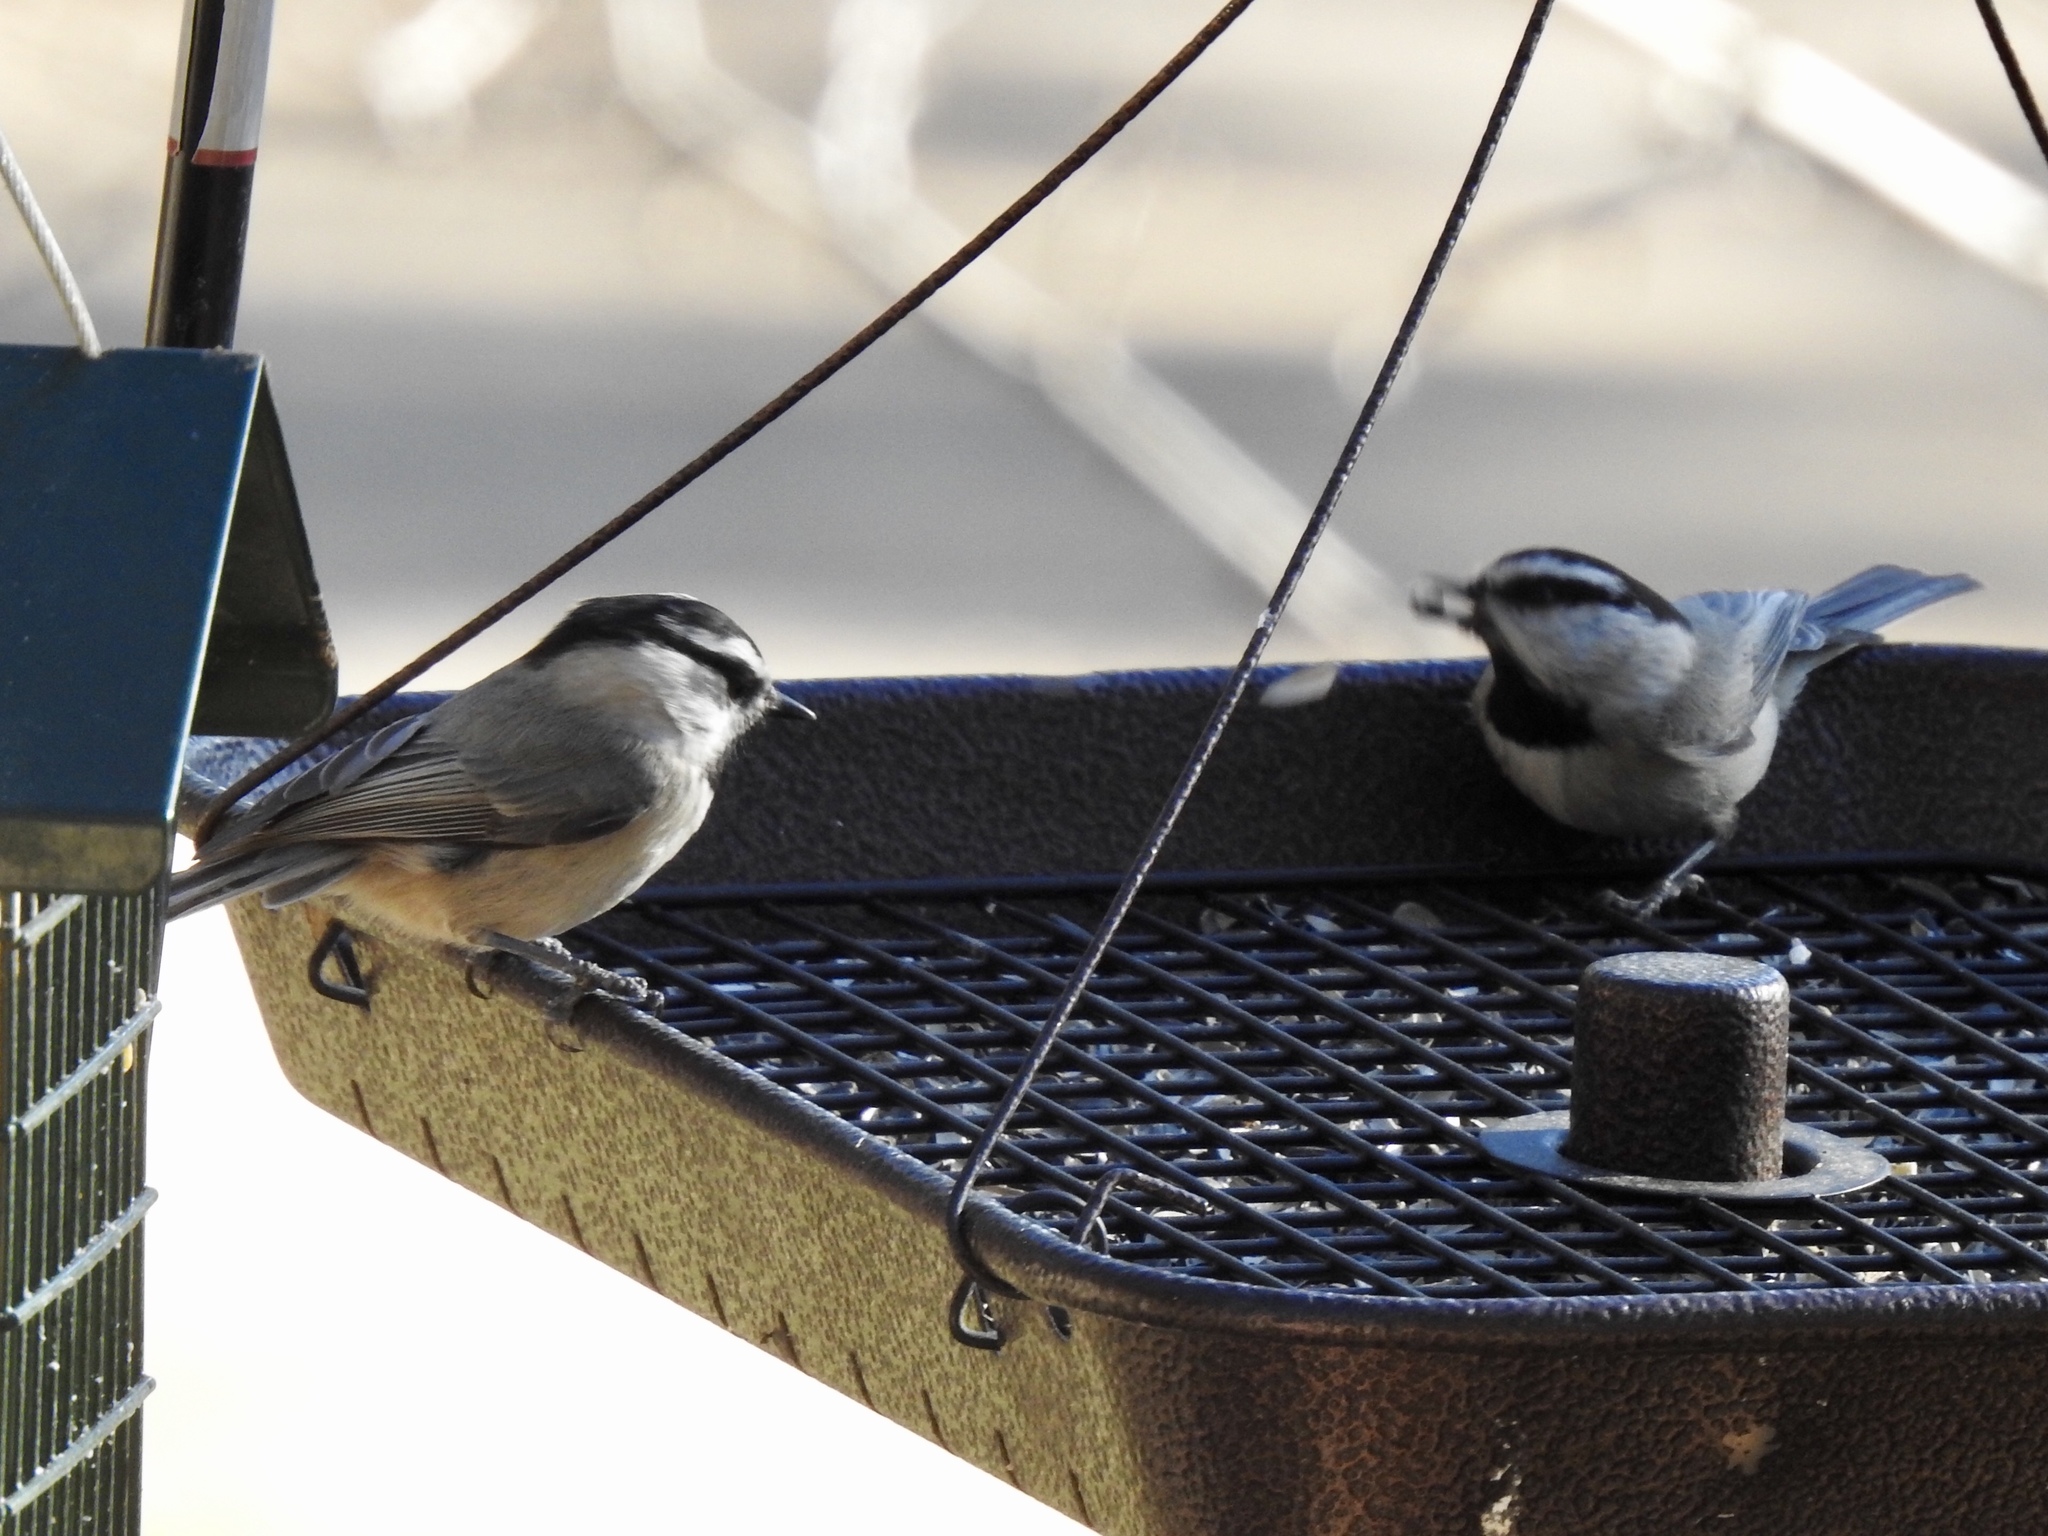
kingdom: Animalia
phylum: Chordata
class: Aves
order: Passeriformes
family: Paridae
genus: Poecile
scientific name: Poecile gambeli
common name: Mountain chickadee
